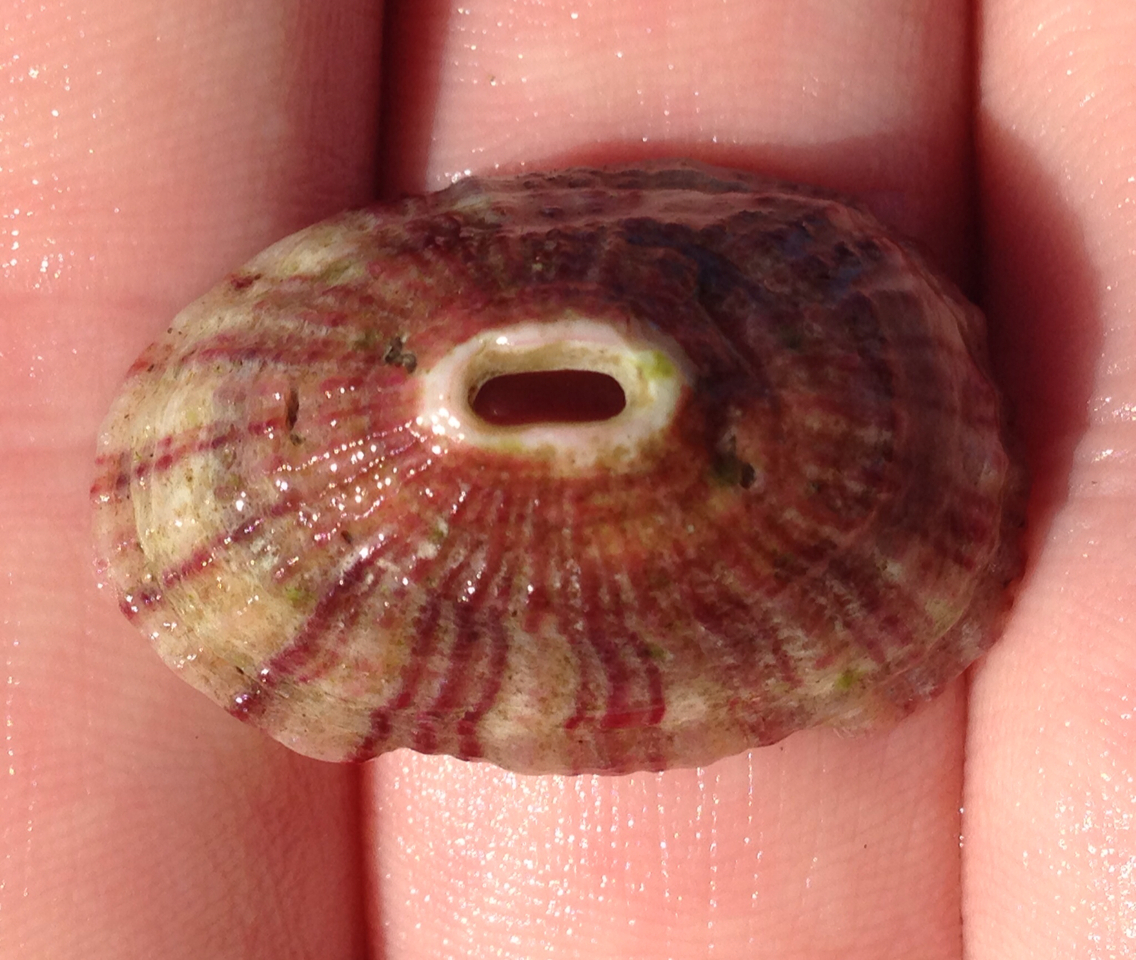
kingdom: Animalia
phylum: Mollusca
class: Gastropoda
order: Lepetellida
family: Fissurellidae
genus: Fissurella
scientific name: Fissurella volcano
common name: Volcano keyhole limpet
